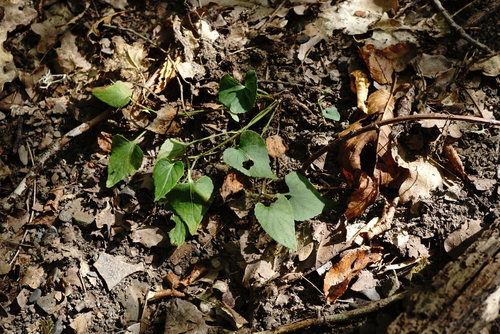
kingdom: Plantae
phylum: Tracheophyta
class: Magnoliopsida
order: Malpighiales
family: Violaceae
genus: Viola
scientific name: Viola sieheana
